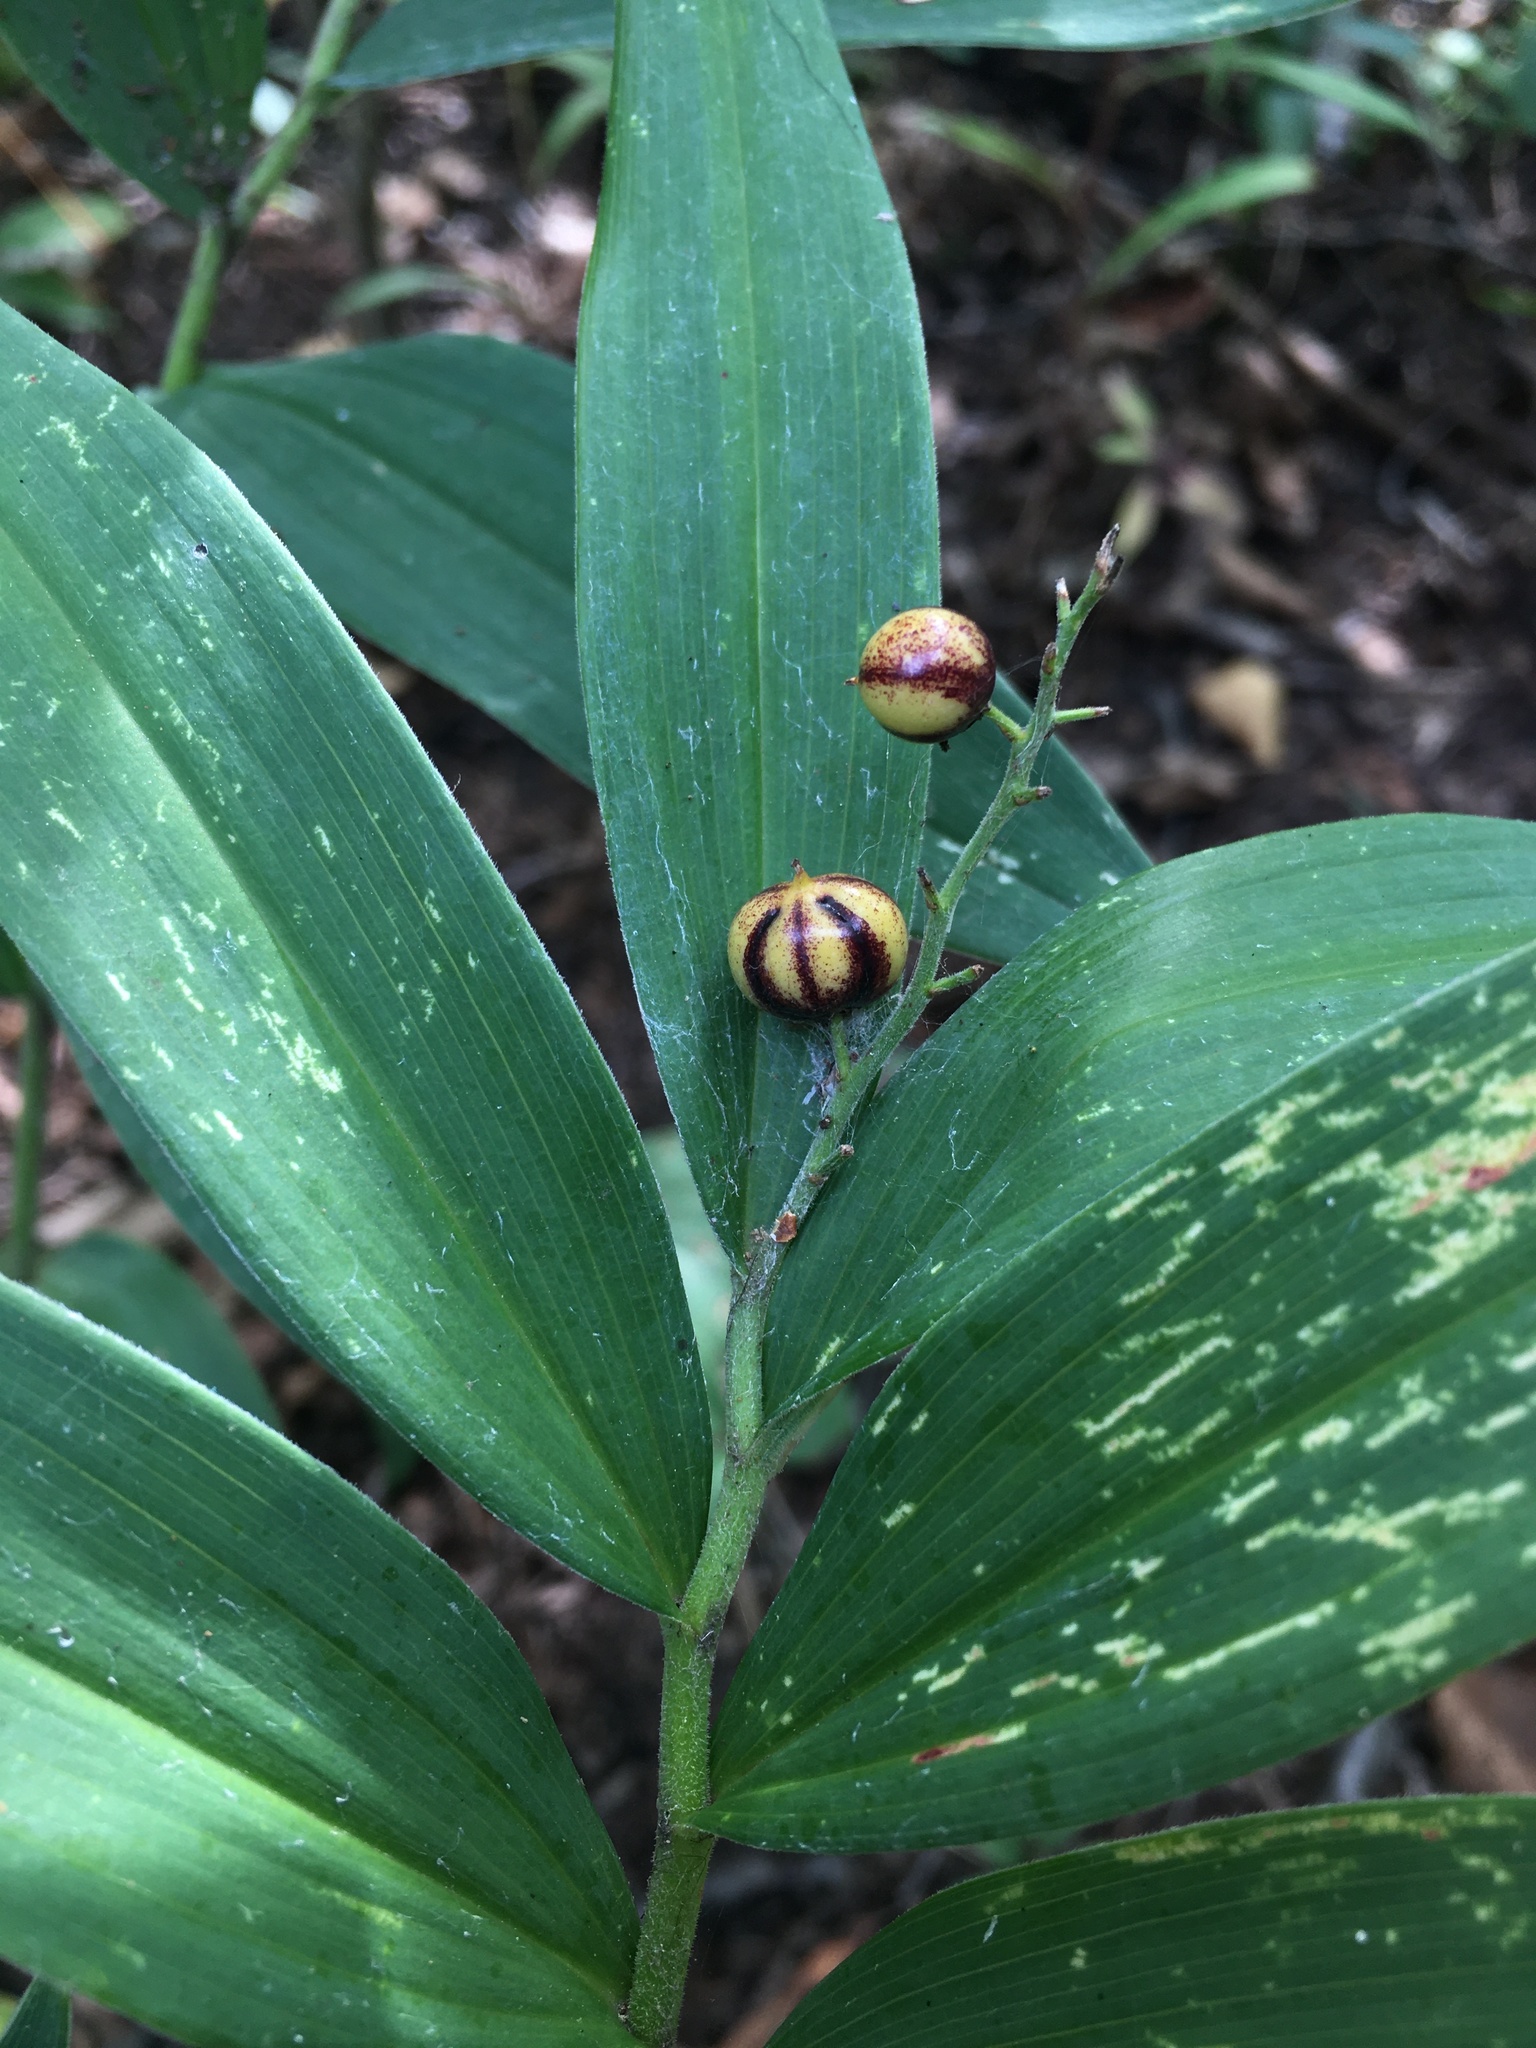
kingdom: Plantae
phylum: Tracheophyta
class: Liliopsida
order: Asparagales
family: Asparagaceae
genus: Maianthemum
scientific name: Maianthemum stellatum
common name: Little false solomon's seal
